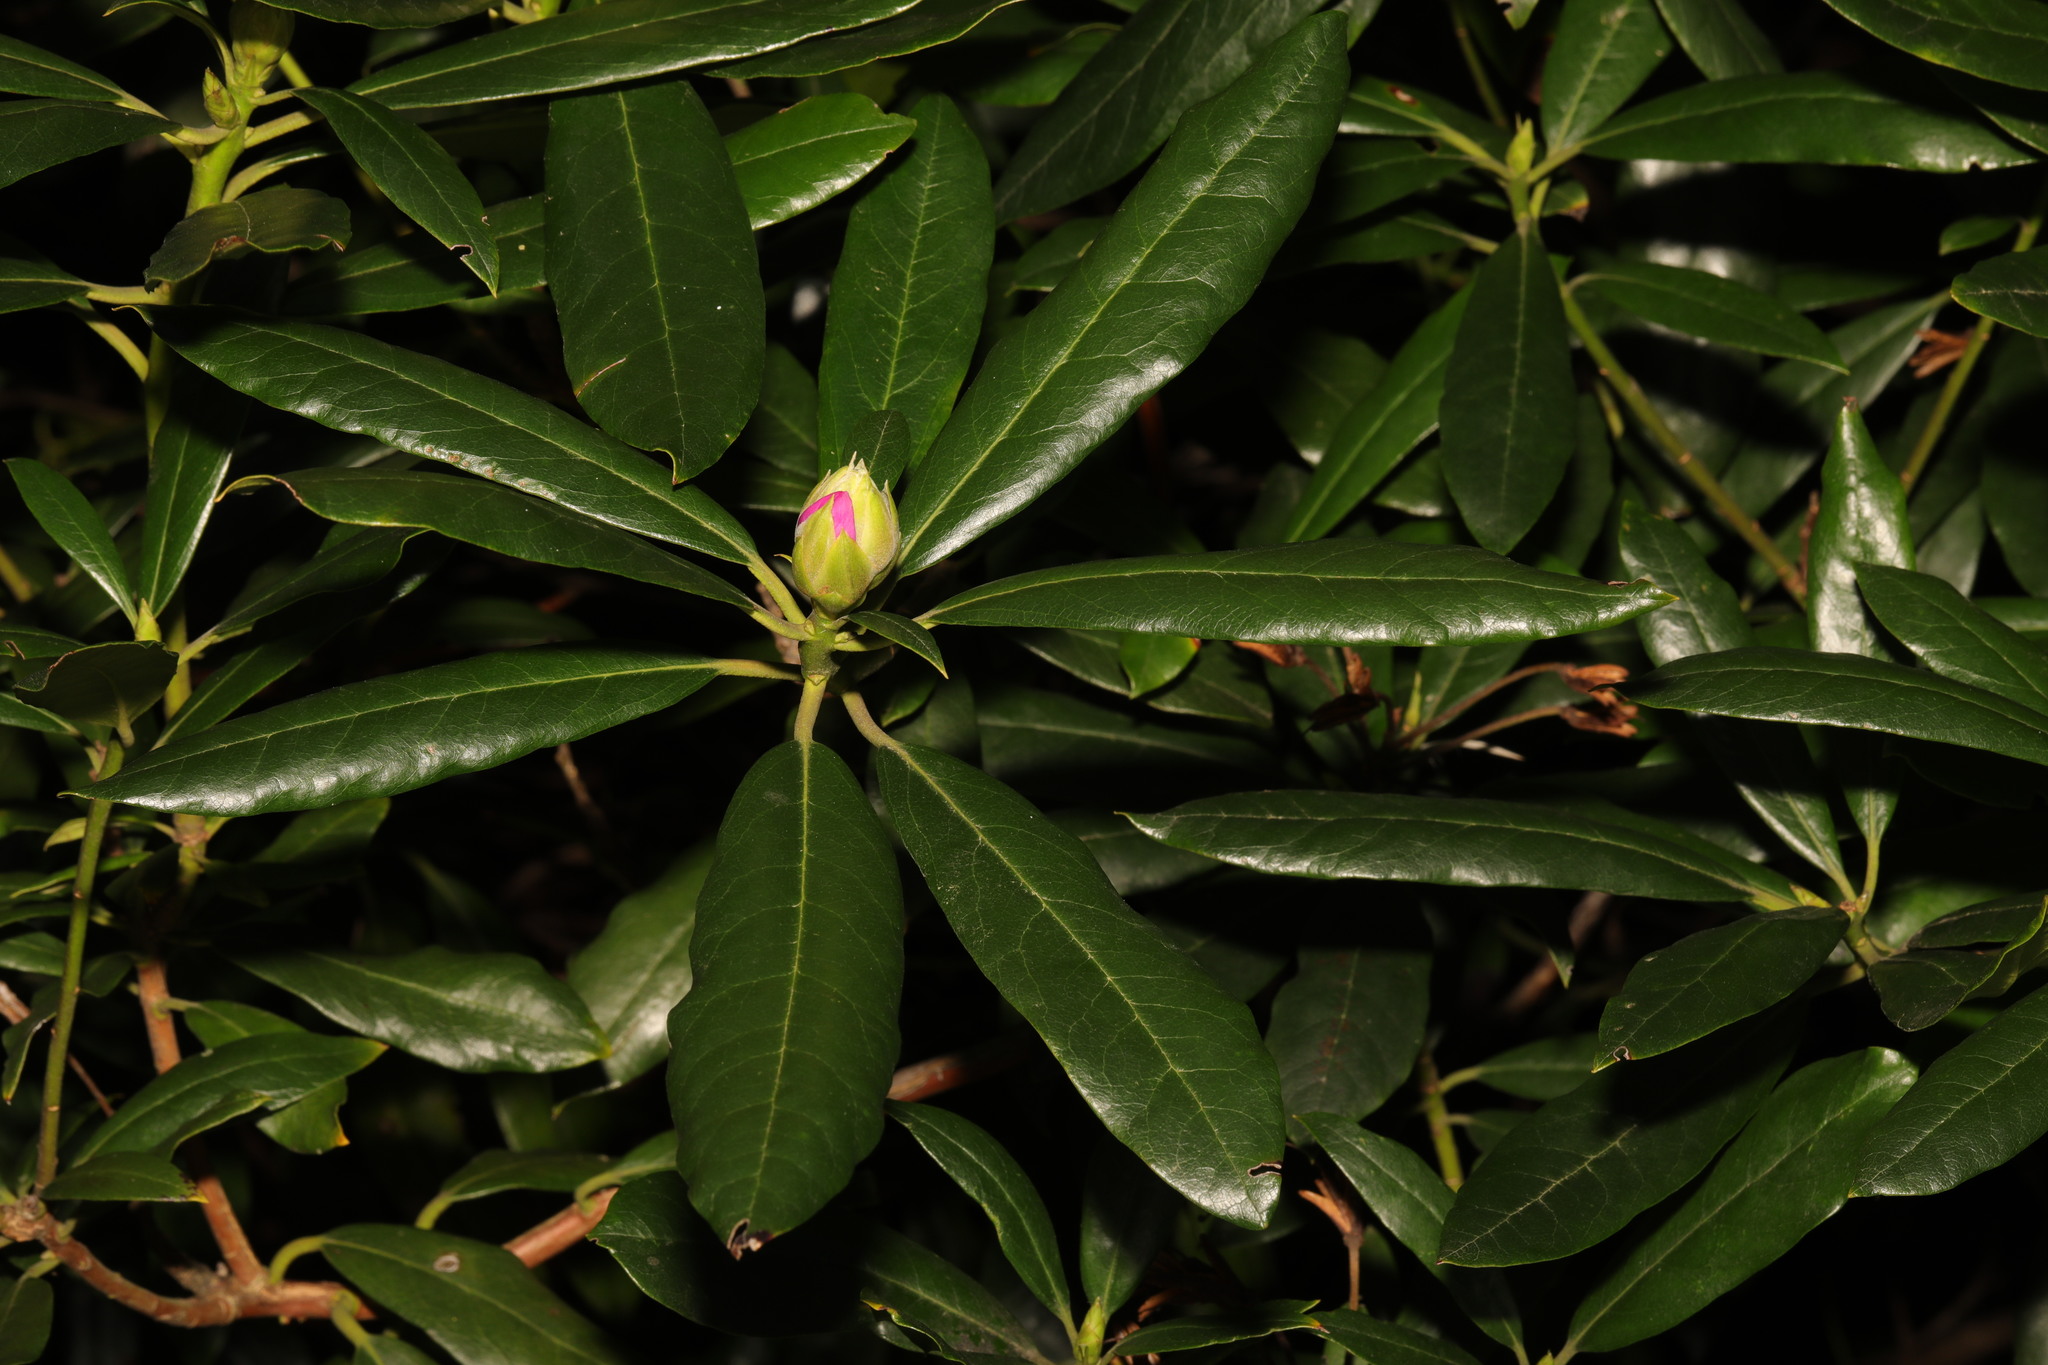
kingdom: Plantae
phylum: Tracheophyta
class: Magnoliopsida
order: Ericales
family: Ericaceae
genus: Rhododendron
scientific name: Rhododendron ponticum
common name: Rhododendron
